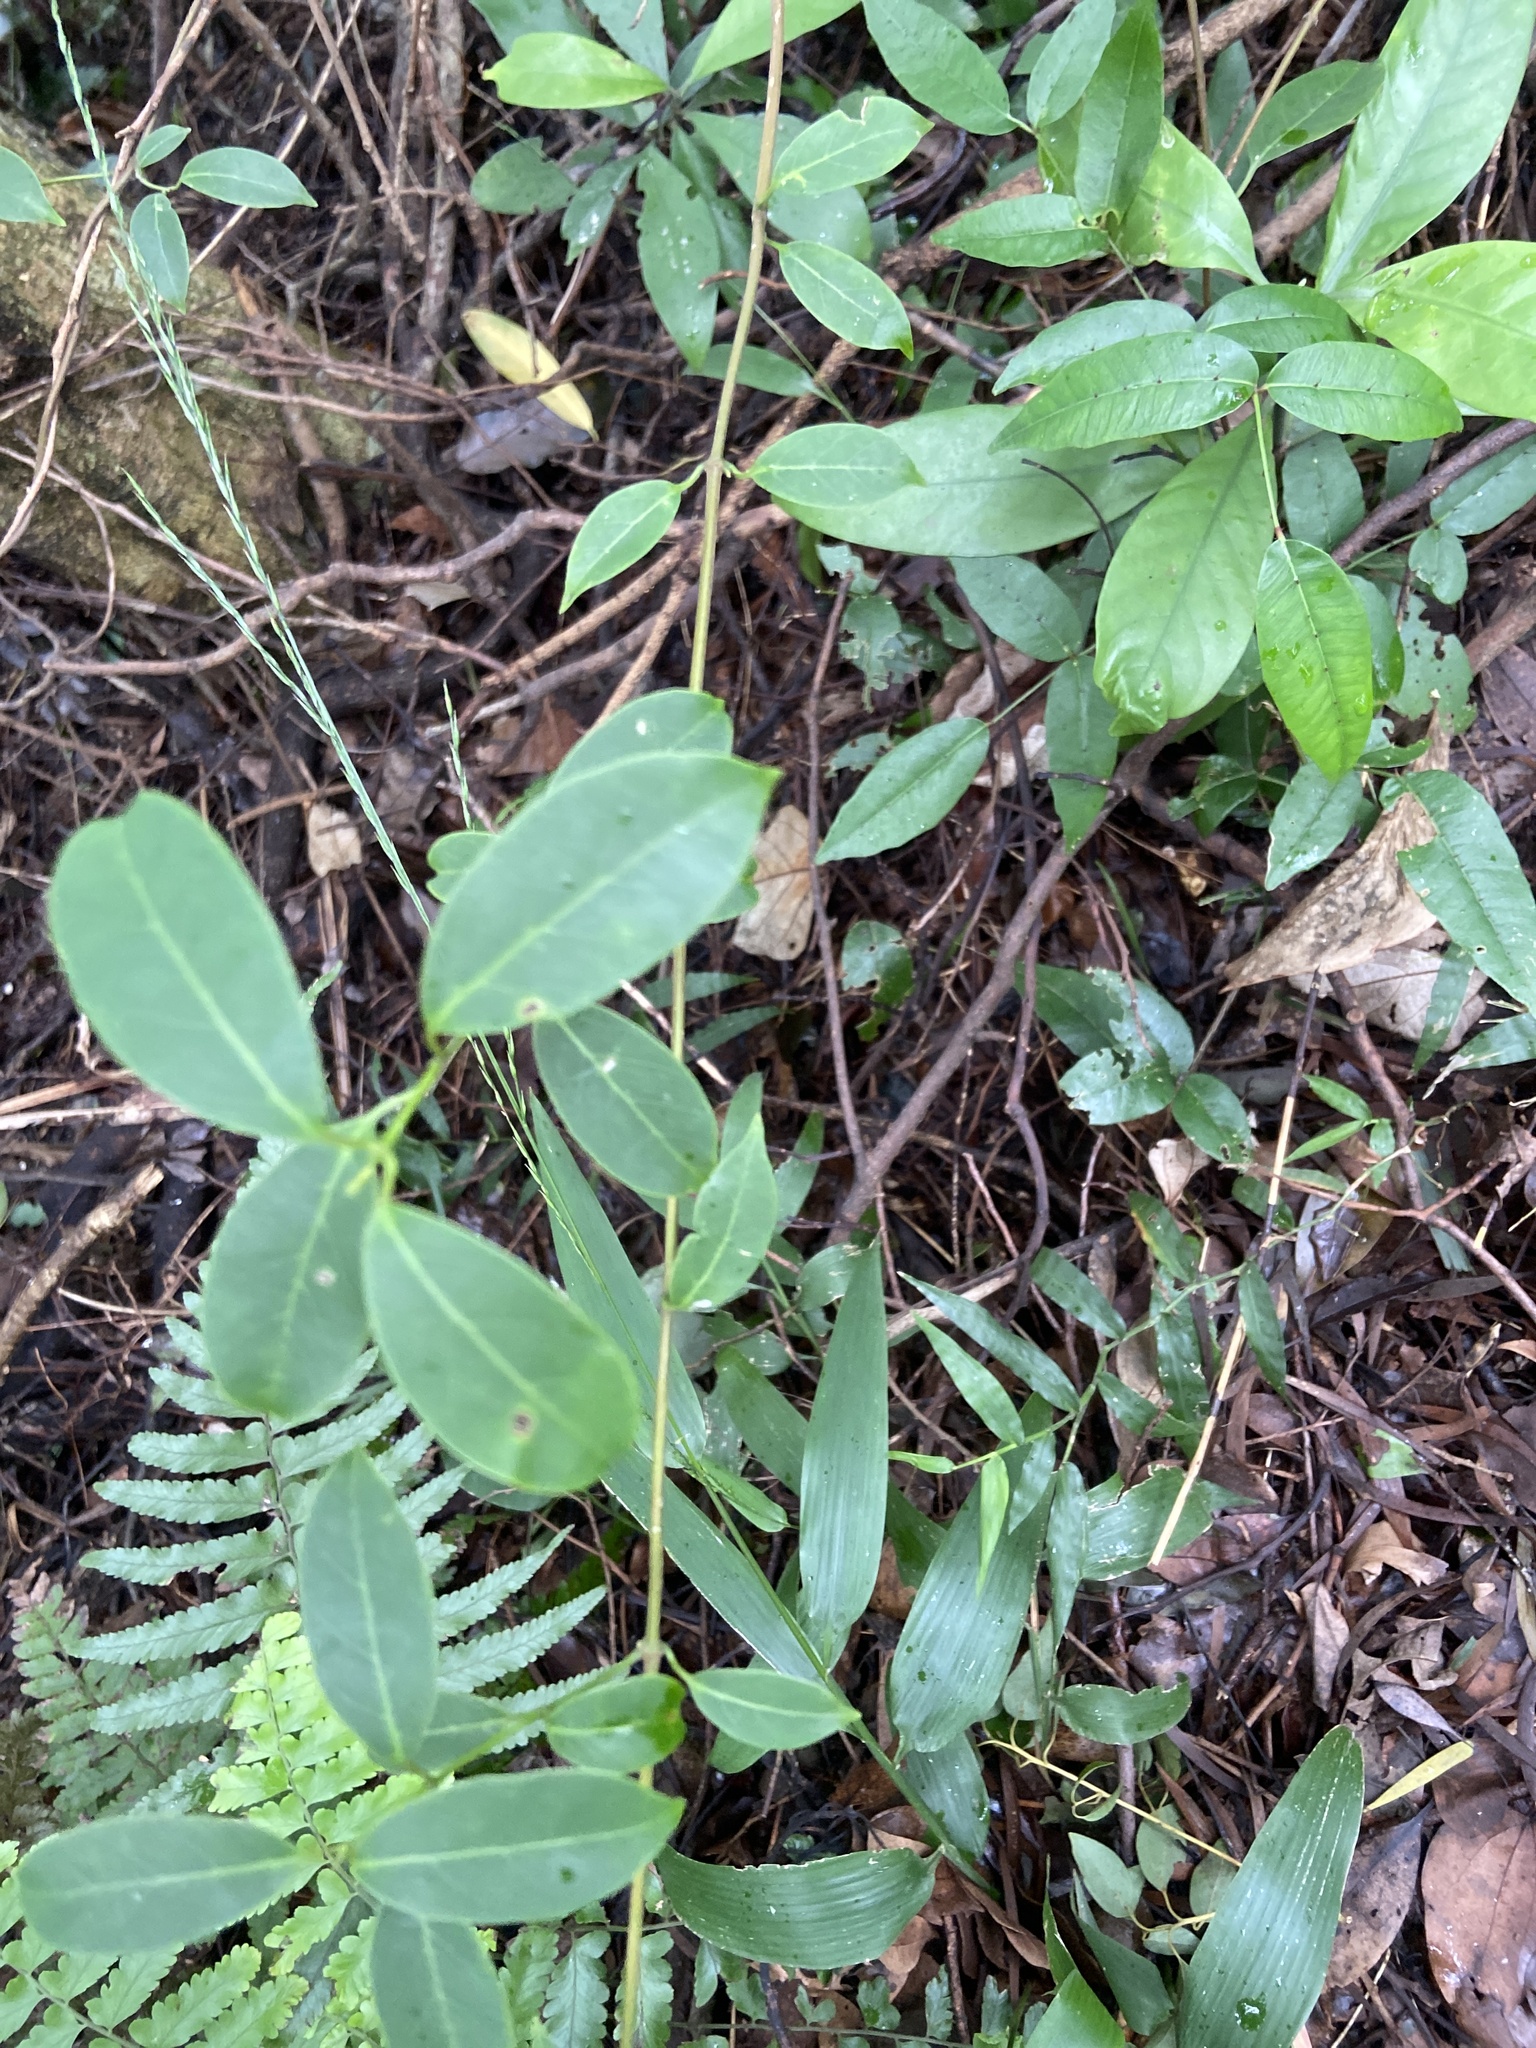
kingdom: Plantae
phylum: Tracheophyta
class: Magnoliopsida
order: Gentianales
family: Apocynaceae
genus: Urceola
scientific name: Urceola rosea
